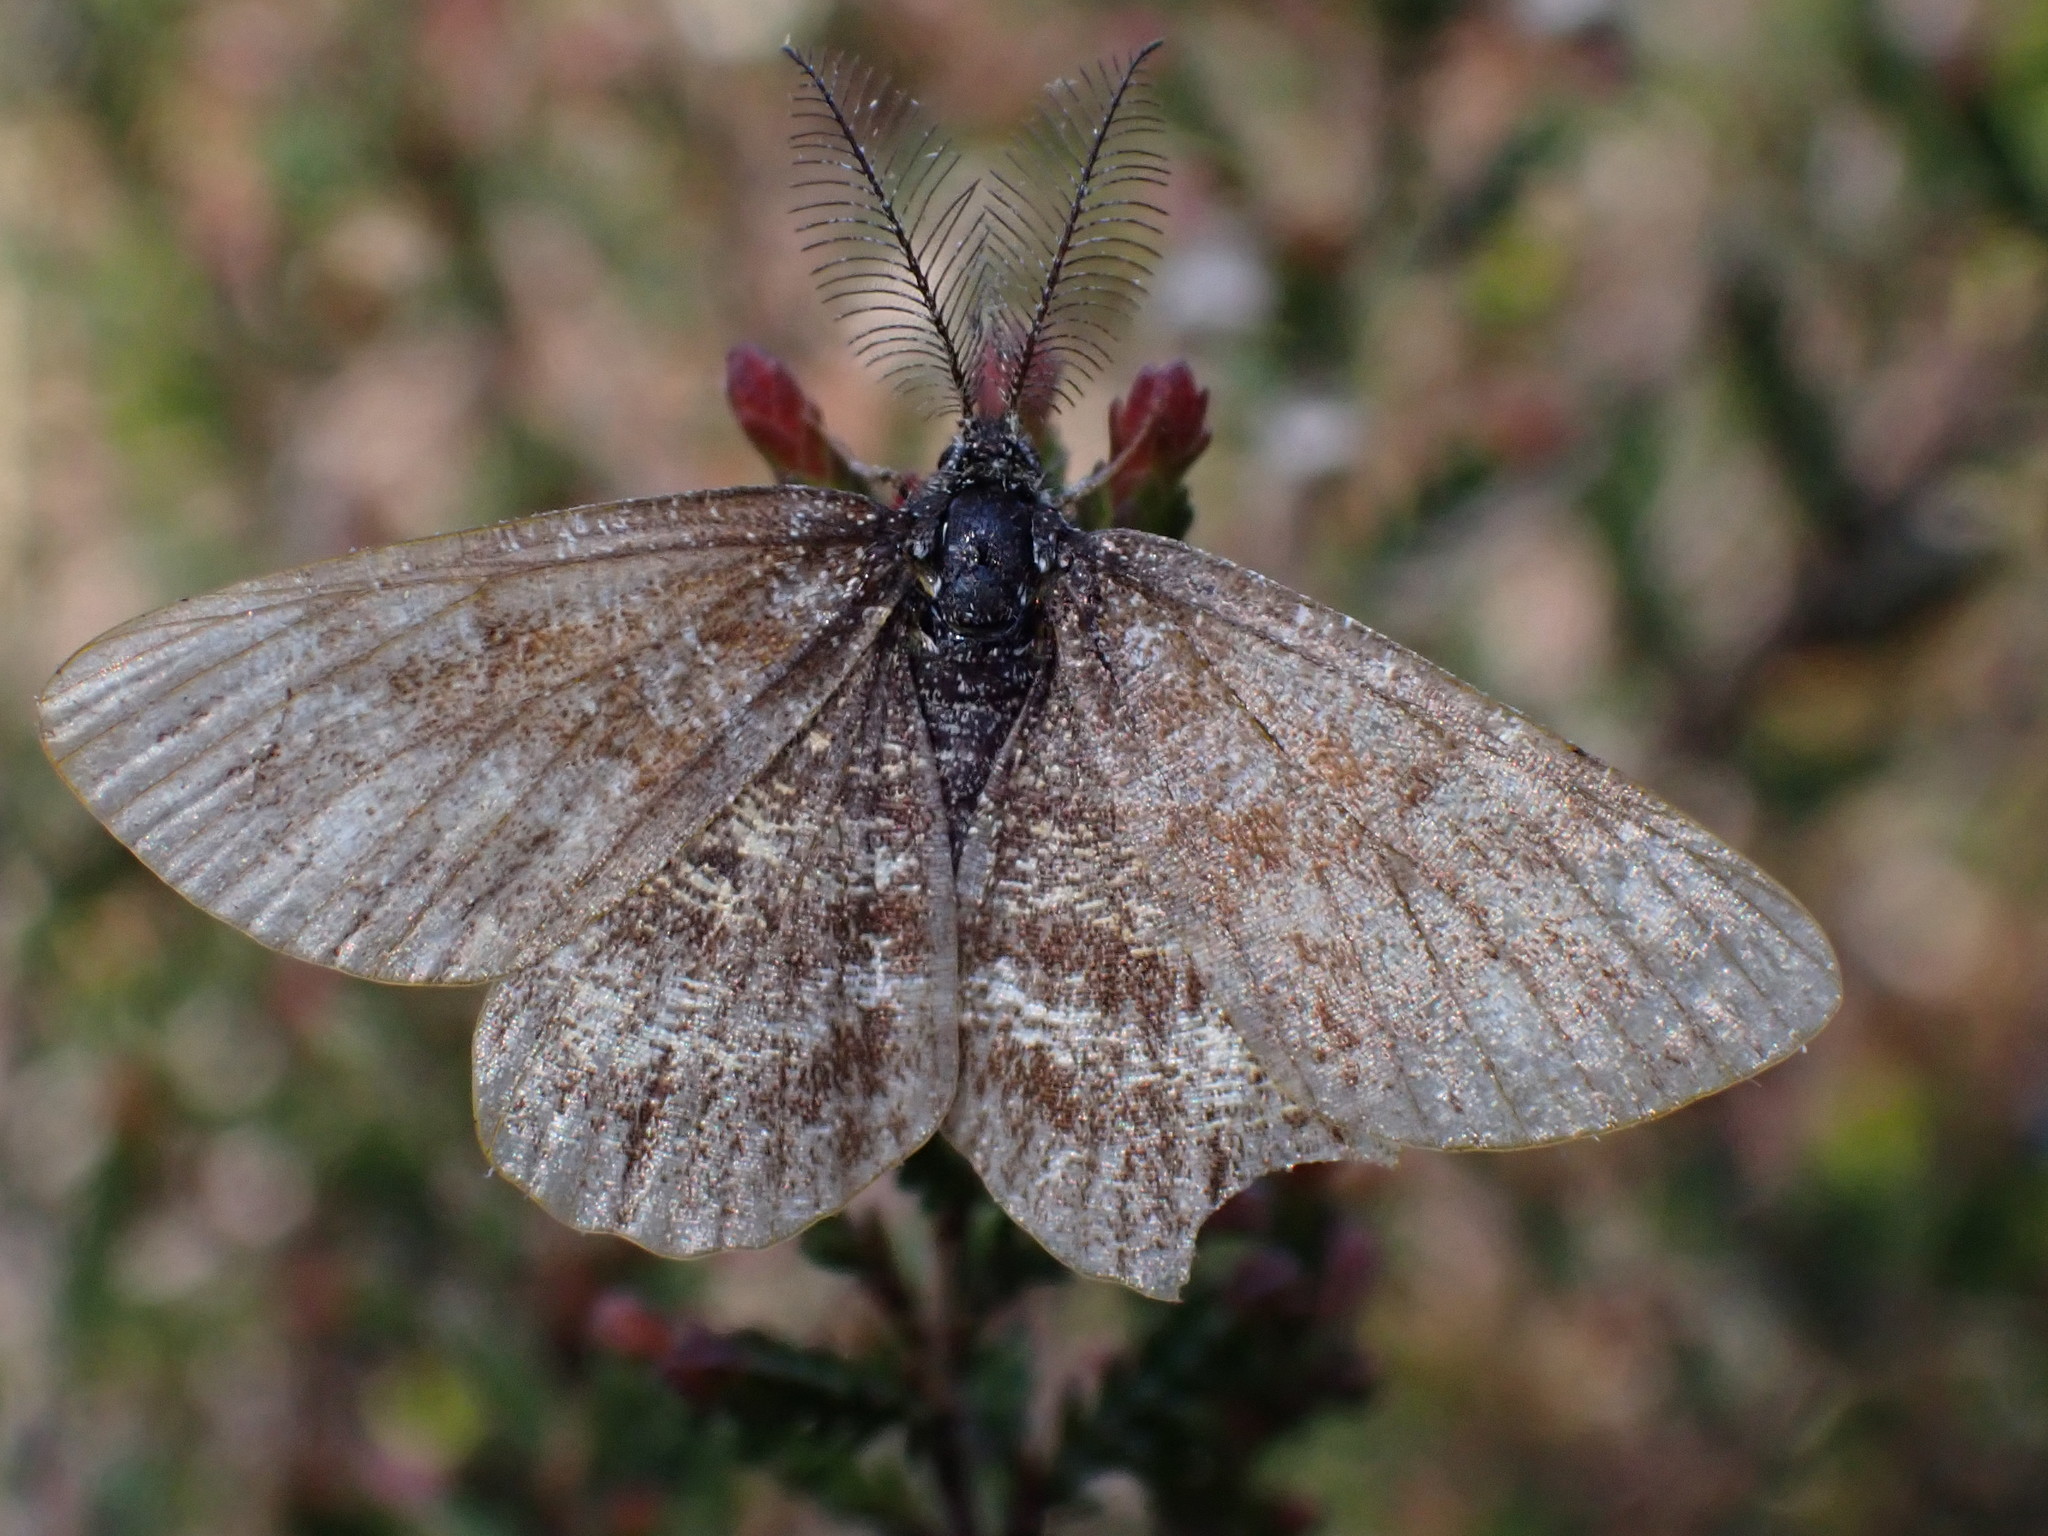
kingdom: Animalia
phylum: Arthropoda
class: Insecta
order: Lepidoptera
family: Geometridae
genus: Ematurga
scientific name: Ematurga atomaria
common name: Common heath
